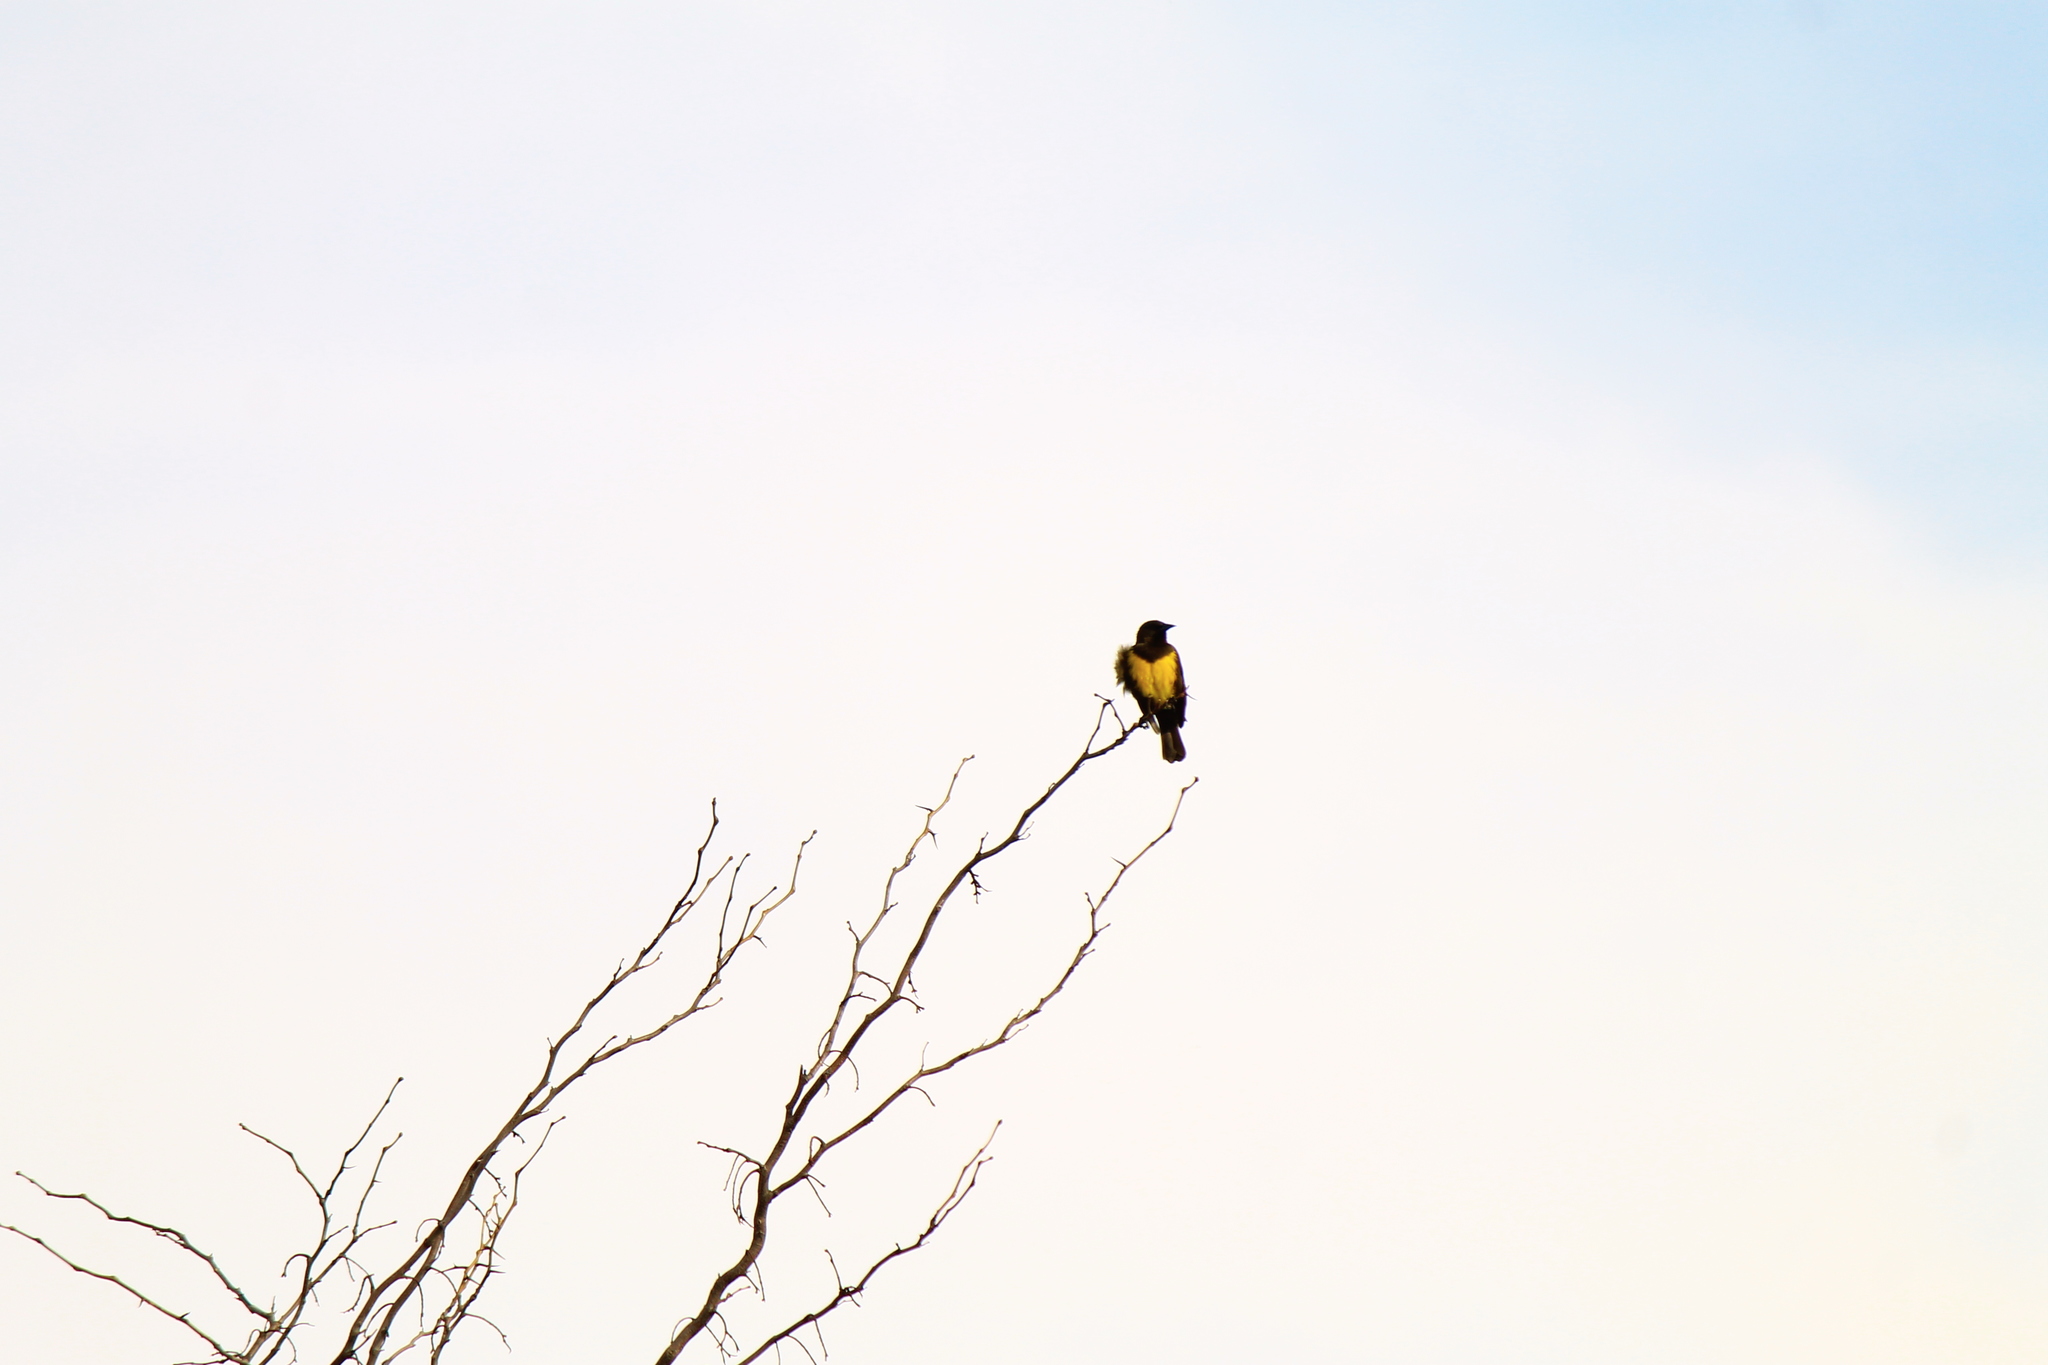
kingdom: Animalia
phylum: Chordata
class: Aves
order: Passeriformes
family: Icteridae
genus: Pseudoleistes
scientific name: Pseudoleistes virescens
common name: Brown-and-yellow marshbird
